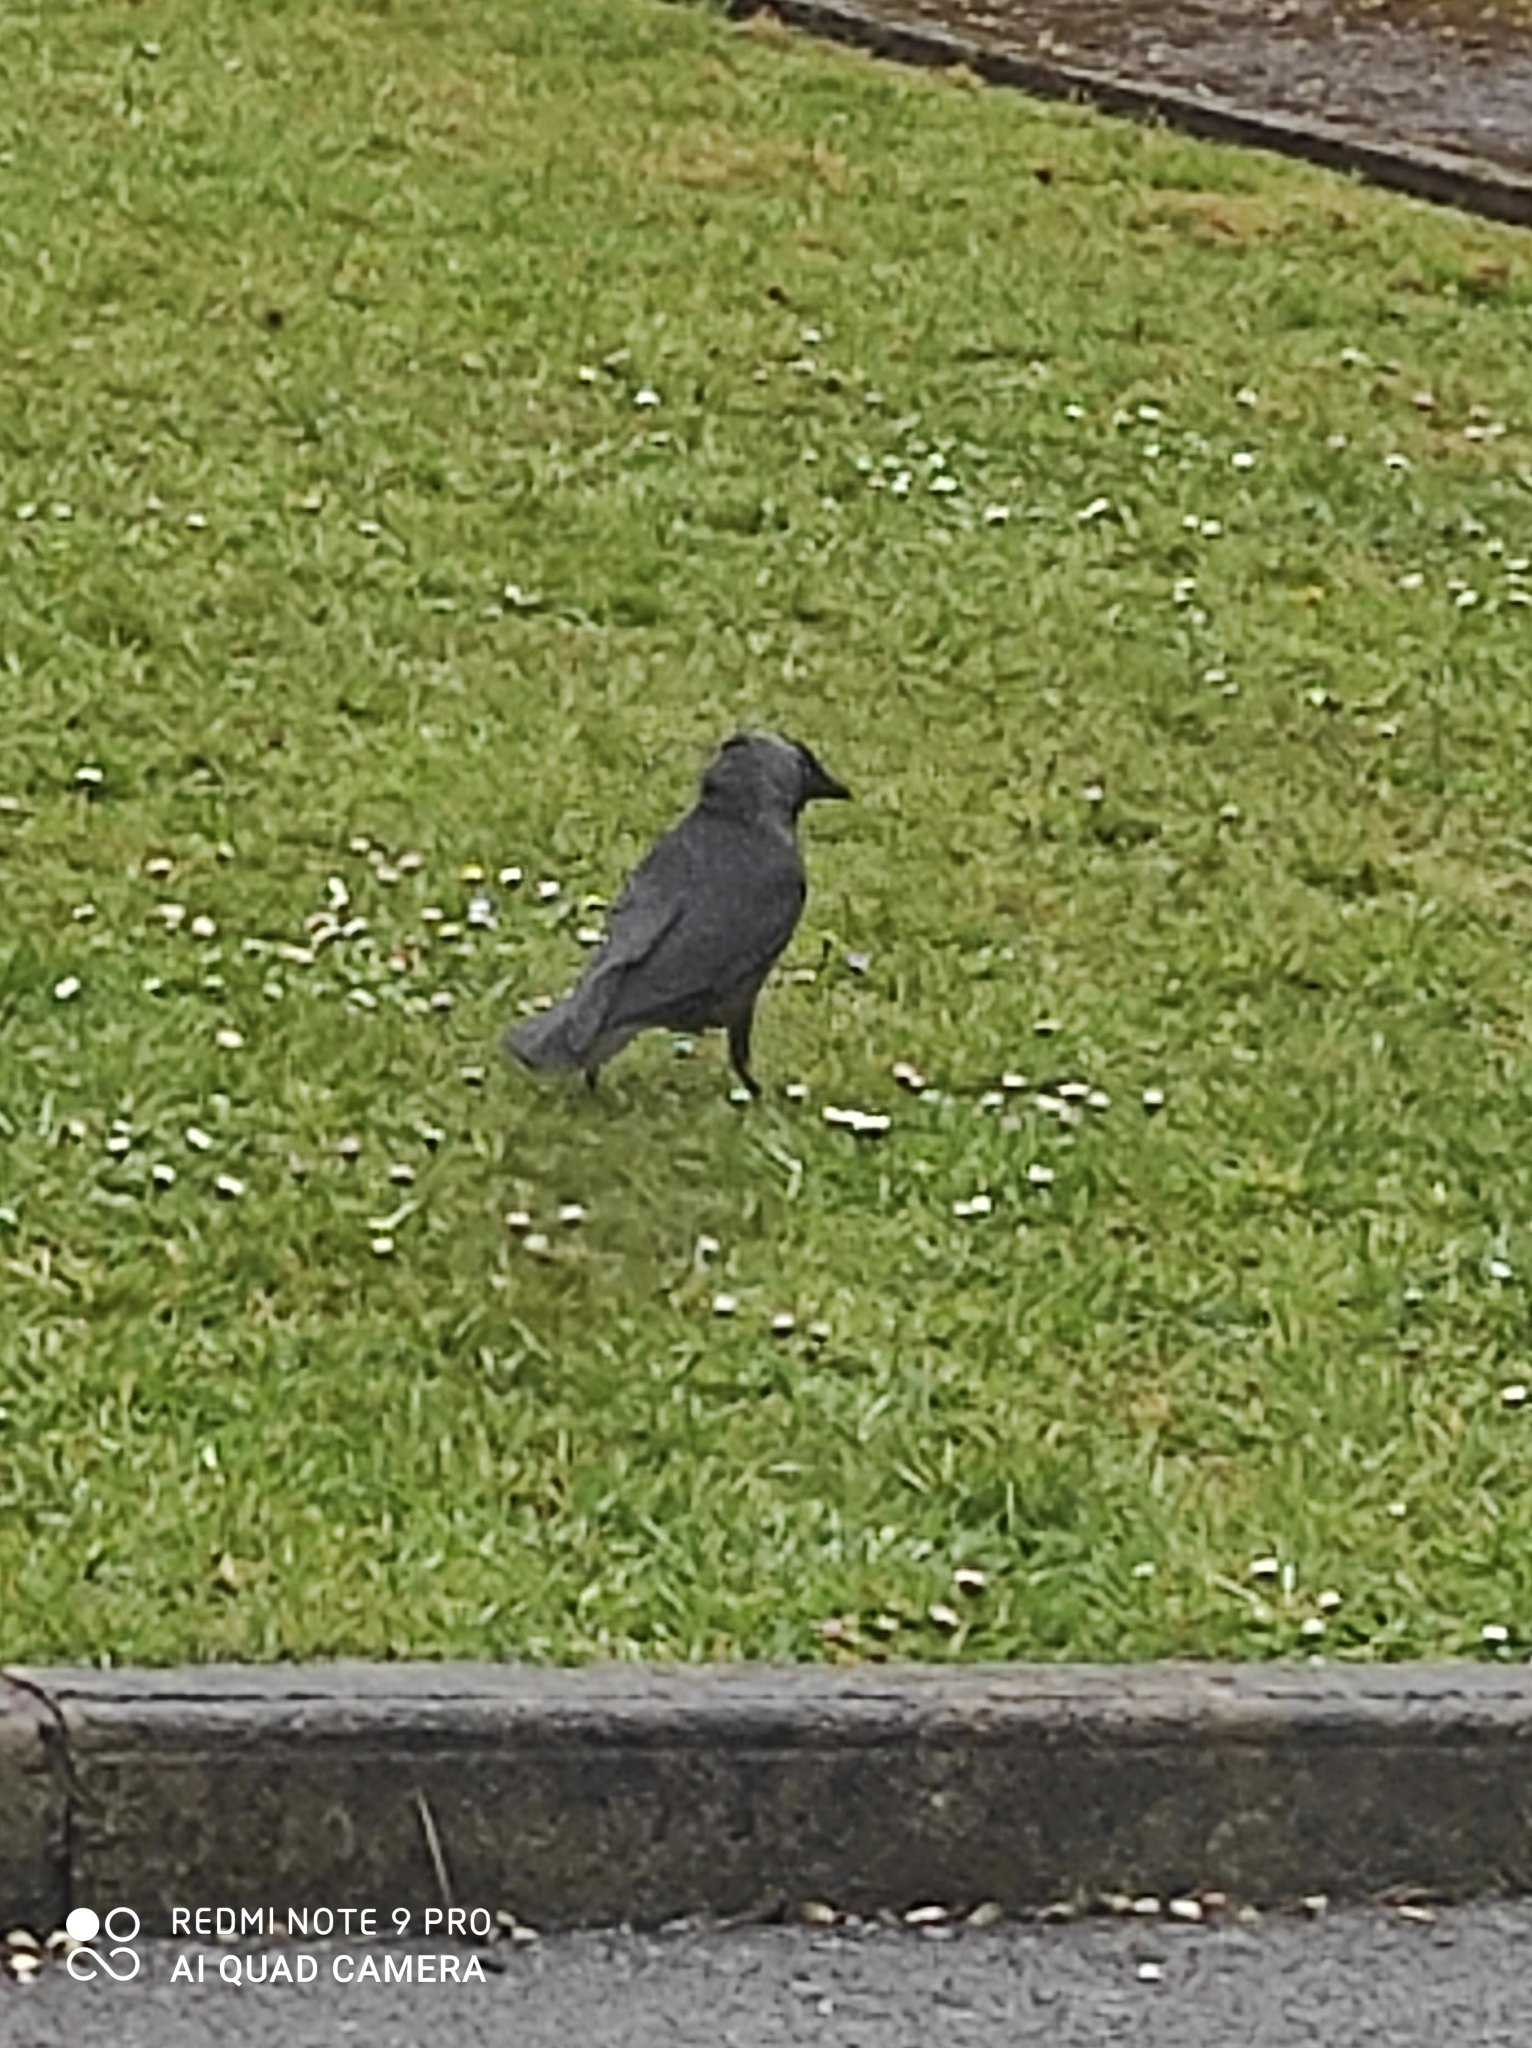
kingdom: Animalia
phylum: Chordata
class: Aves
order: Passeriformes
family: Corvidae
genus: Coloeus
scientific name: Coloeus monedula
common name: Western jackdaw
